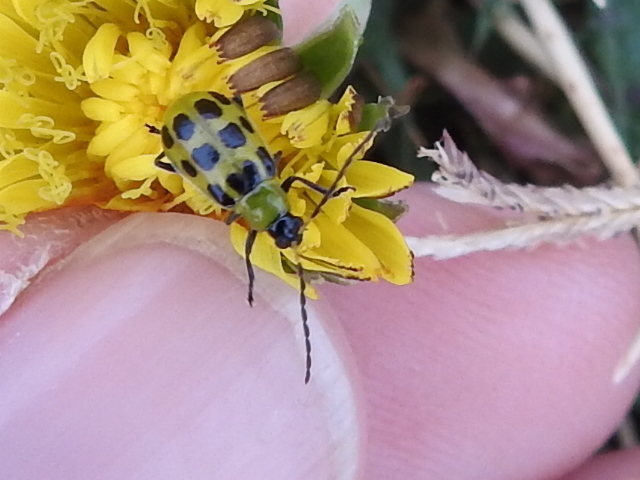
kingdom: Animalia
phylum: Arthropoda
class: Insecta
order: Coleoptera
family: Chrysomelidae
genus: Diabrotica
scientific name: Diabrotica undecimpunctata
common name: Spotted cucumber beetle
